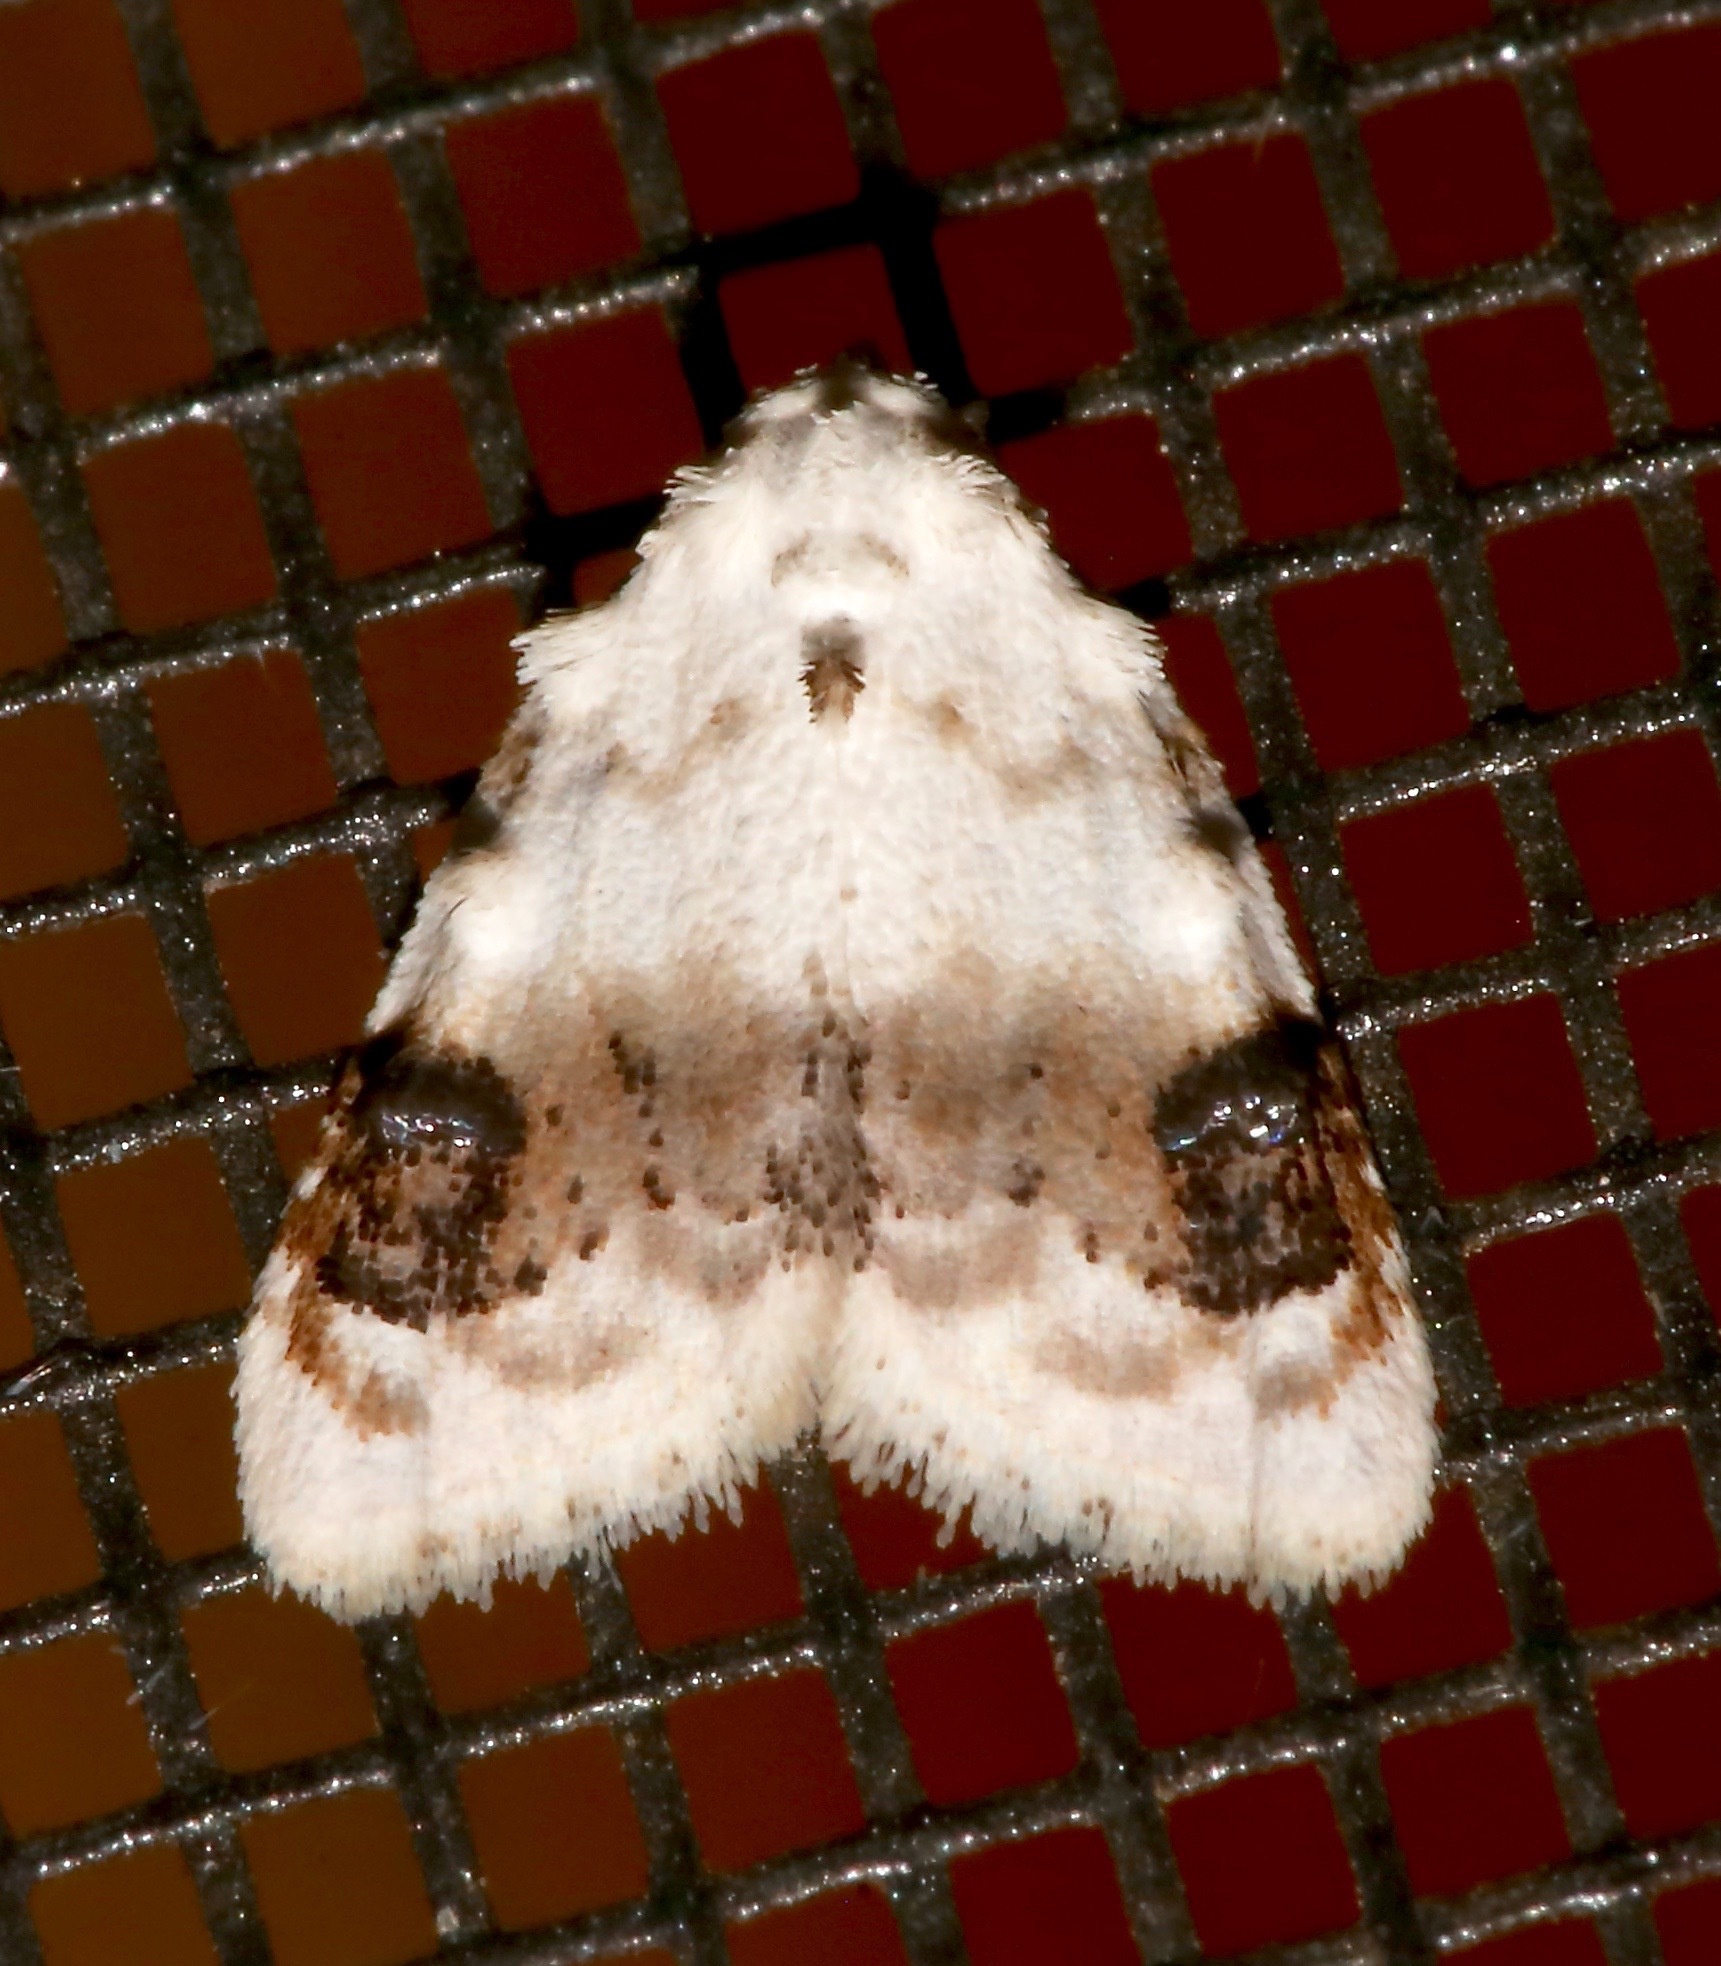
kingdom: Animalia
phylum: Arthropoda
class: Insecta
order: Lepidoptera
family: Nolidae
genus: Nola
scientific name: Nola cilicoides
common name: Blurry-patched nola moth
